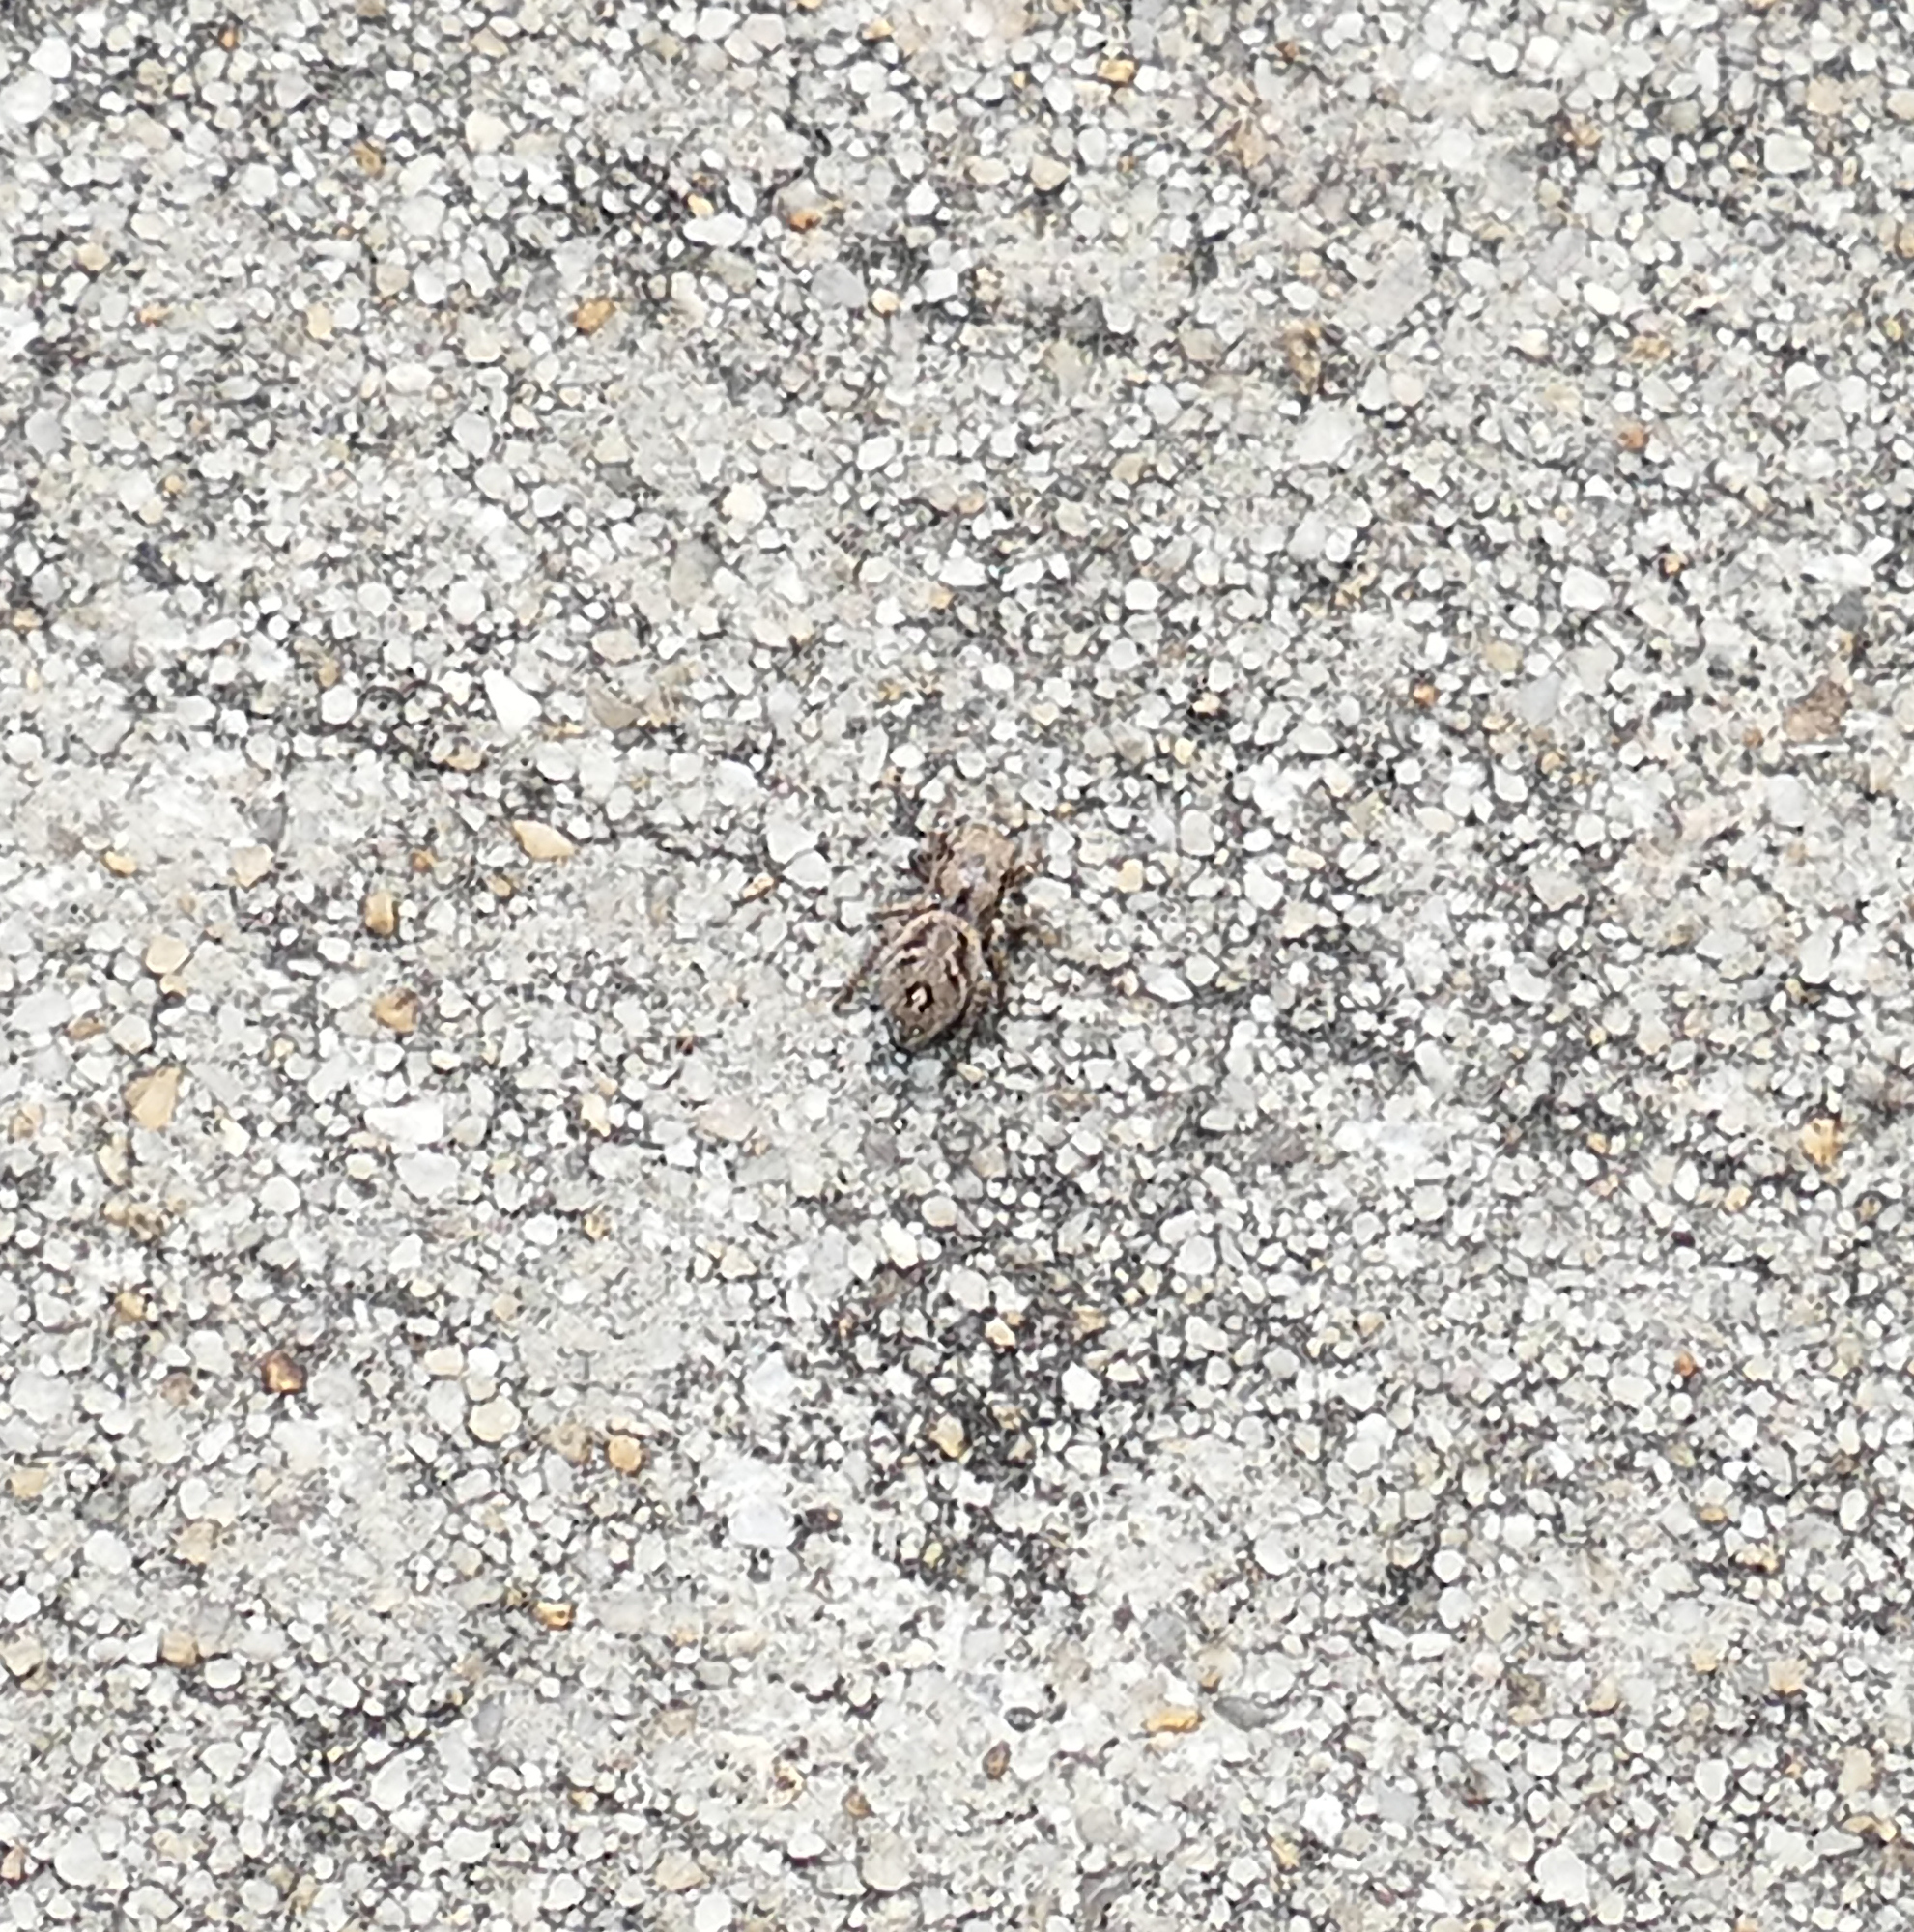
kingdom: Animalia
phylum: Arthropoda
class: Arachnida
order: Araneae
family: Salticidae
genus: Habronattus
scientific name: Habronattus coecatus
